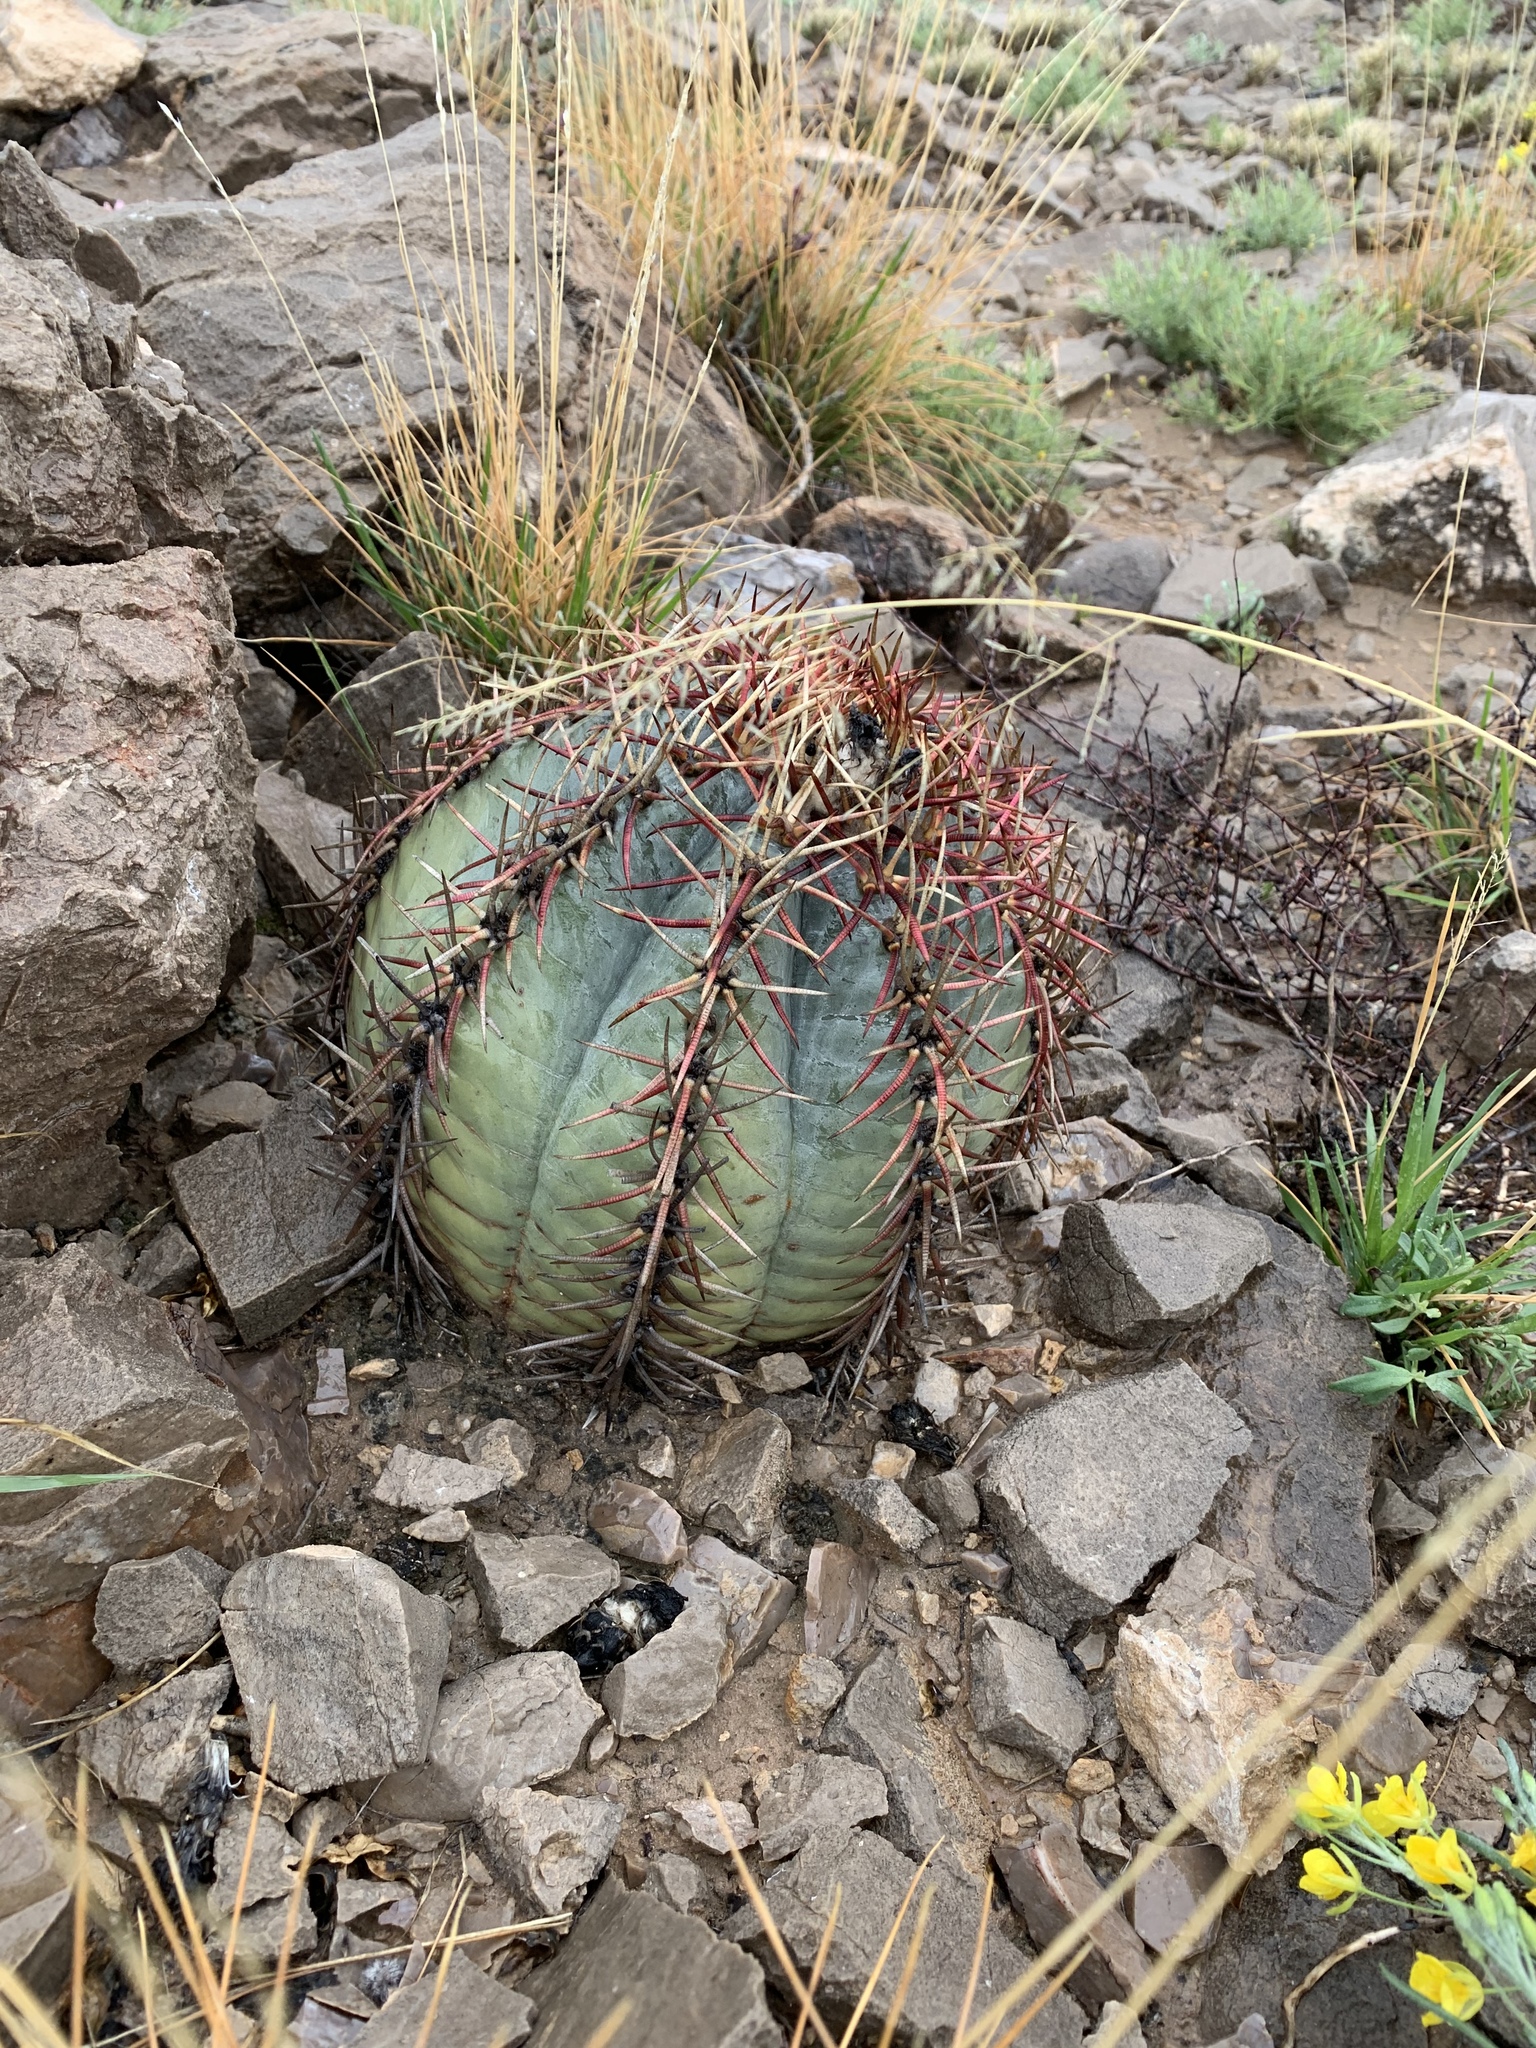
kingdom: Plantae
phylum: Tracheophyta
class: Magnoliopsida
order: Caryophyllales
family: Cactaceae
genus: Echinocactus
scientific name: Echinocactus horizonthalonius
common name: Devilshead
